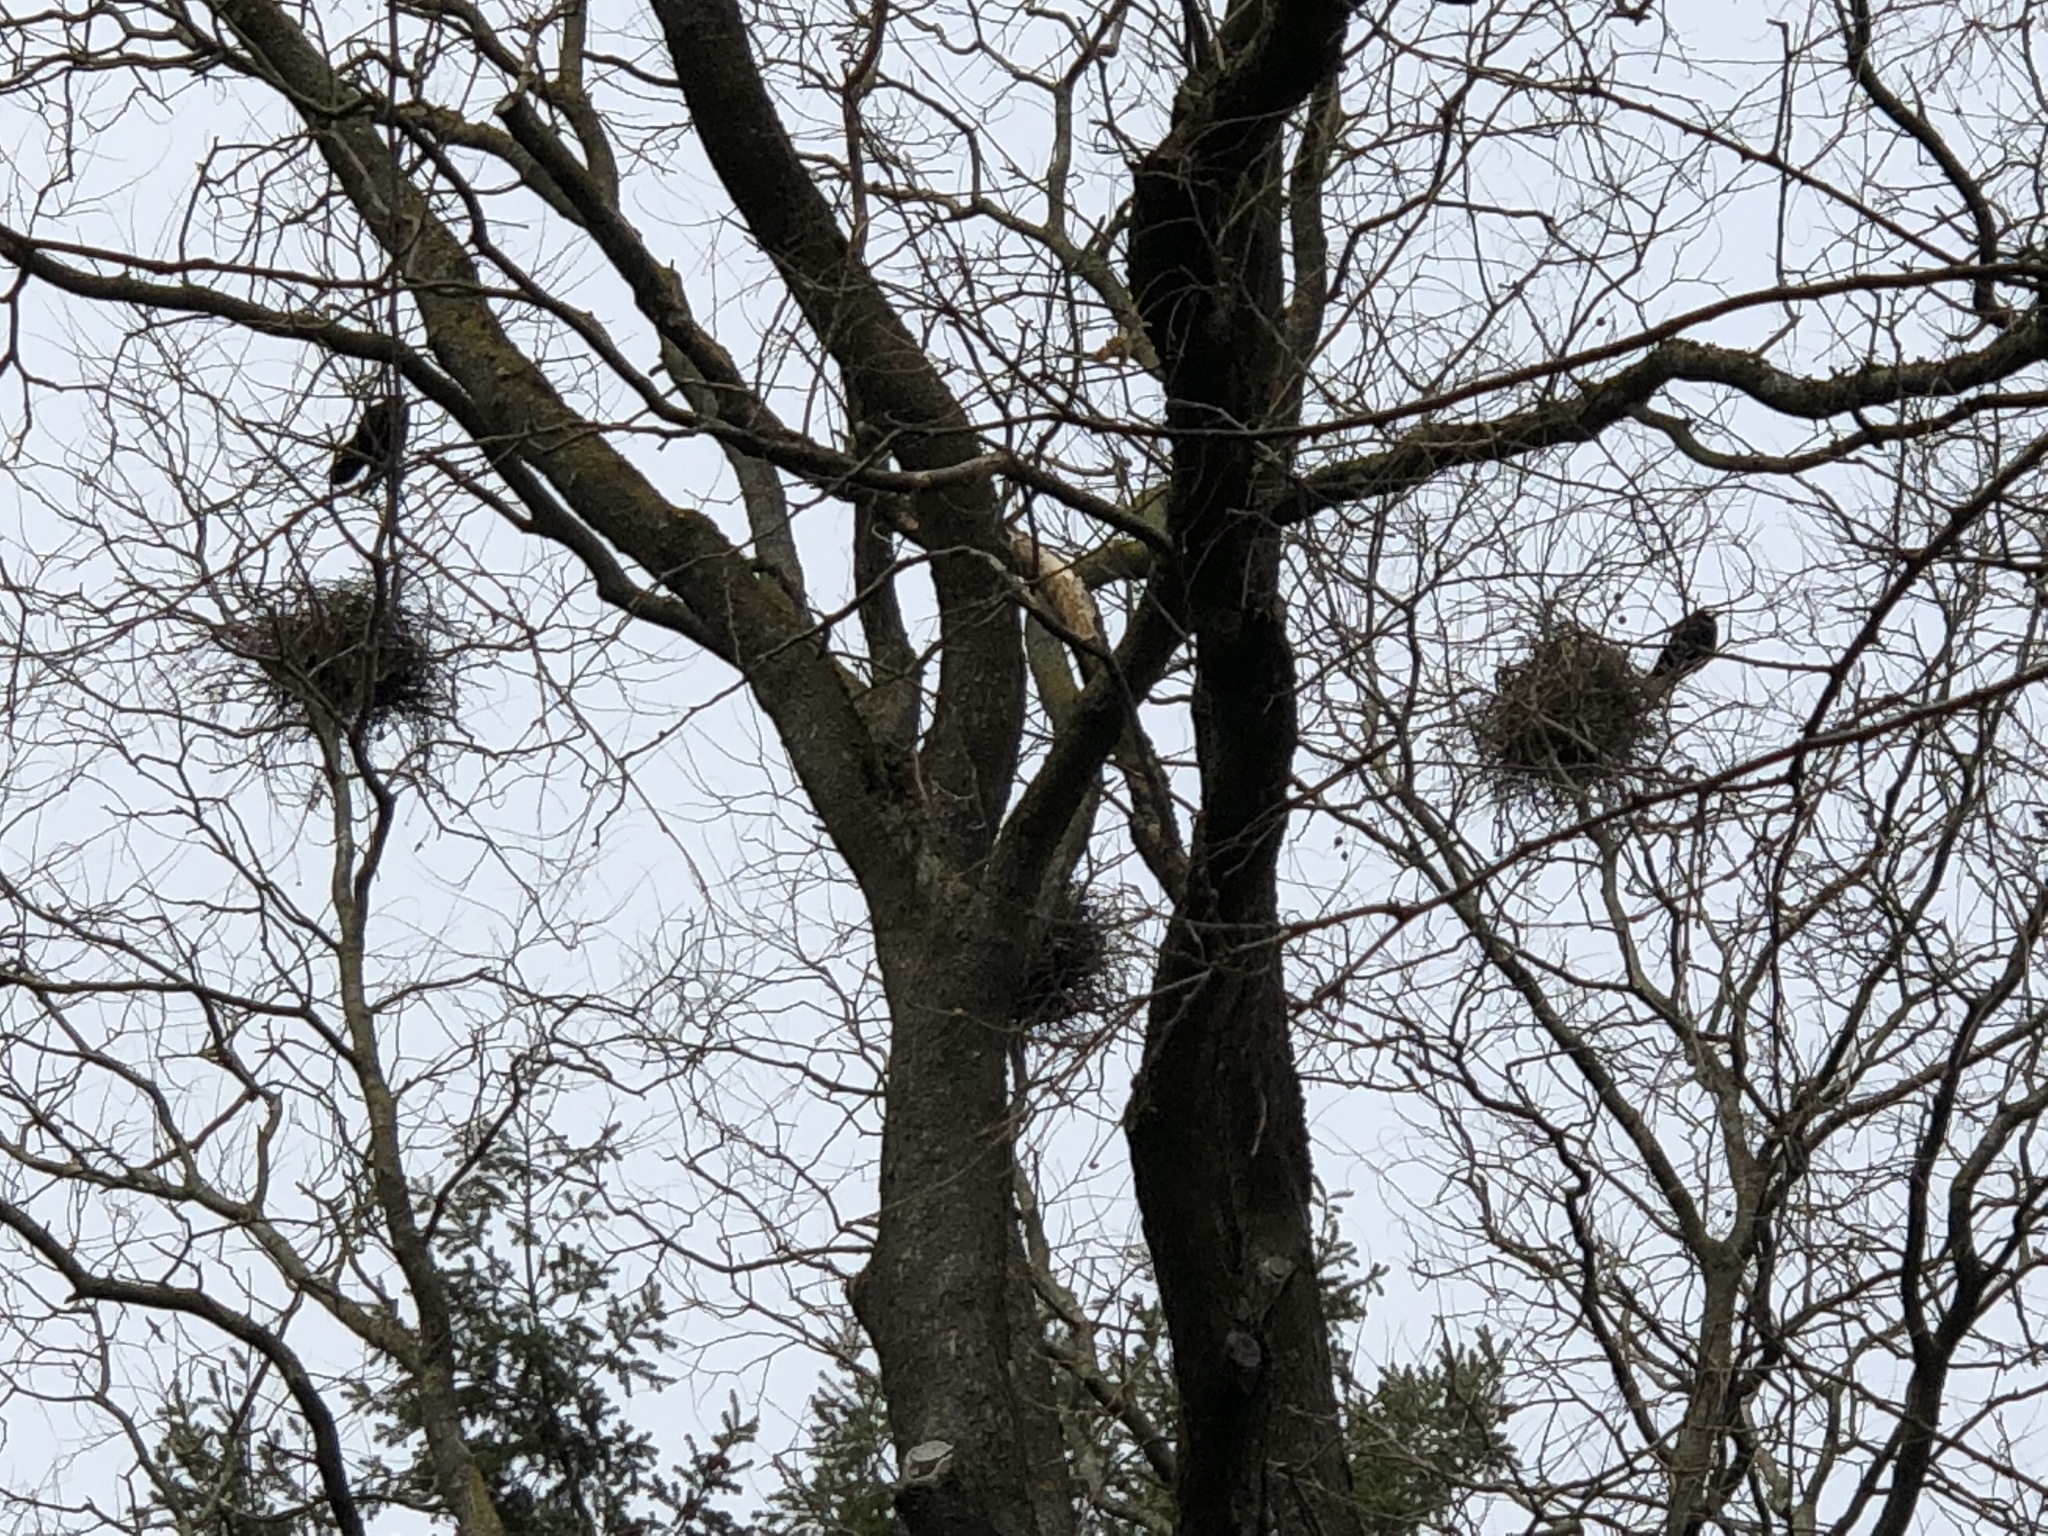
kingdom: Animalia
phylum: Chordata
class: Aves
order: Passeriformes
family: Corvidae
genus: Corvus
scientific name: Corvus frugilegus
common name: Rook
